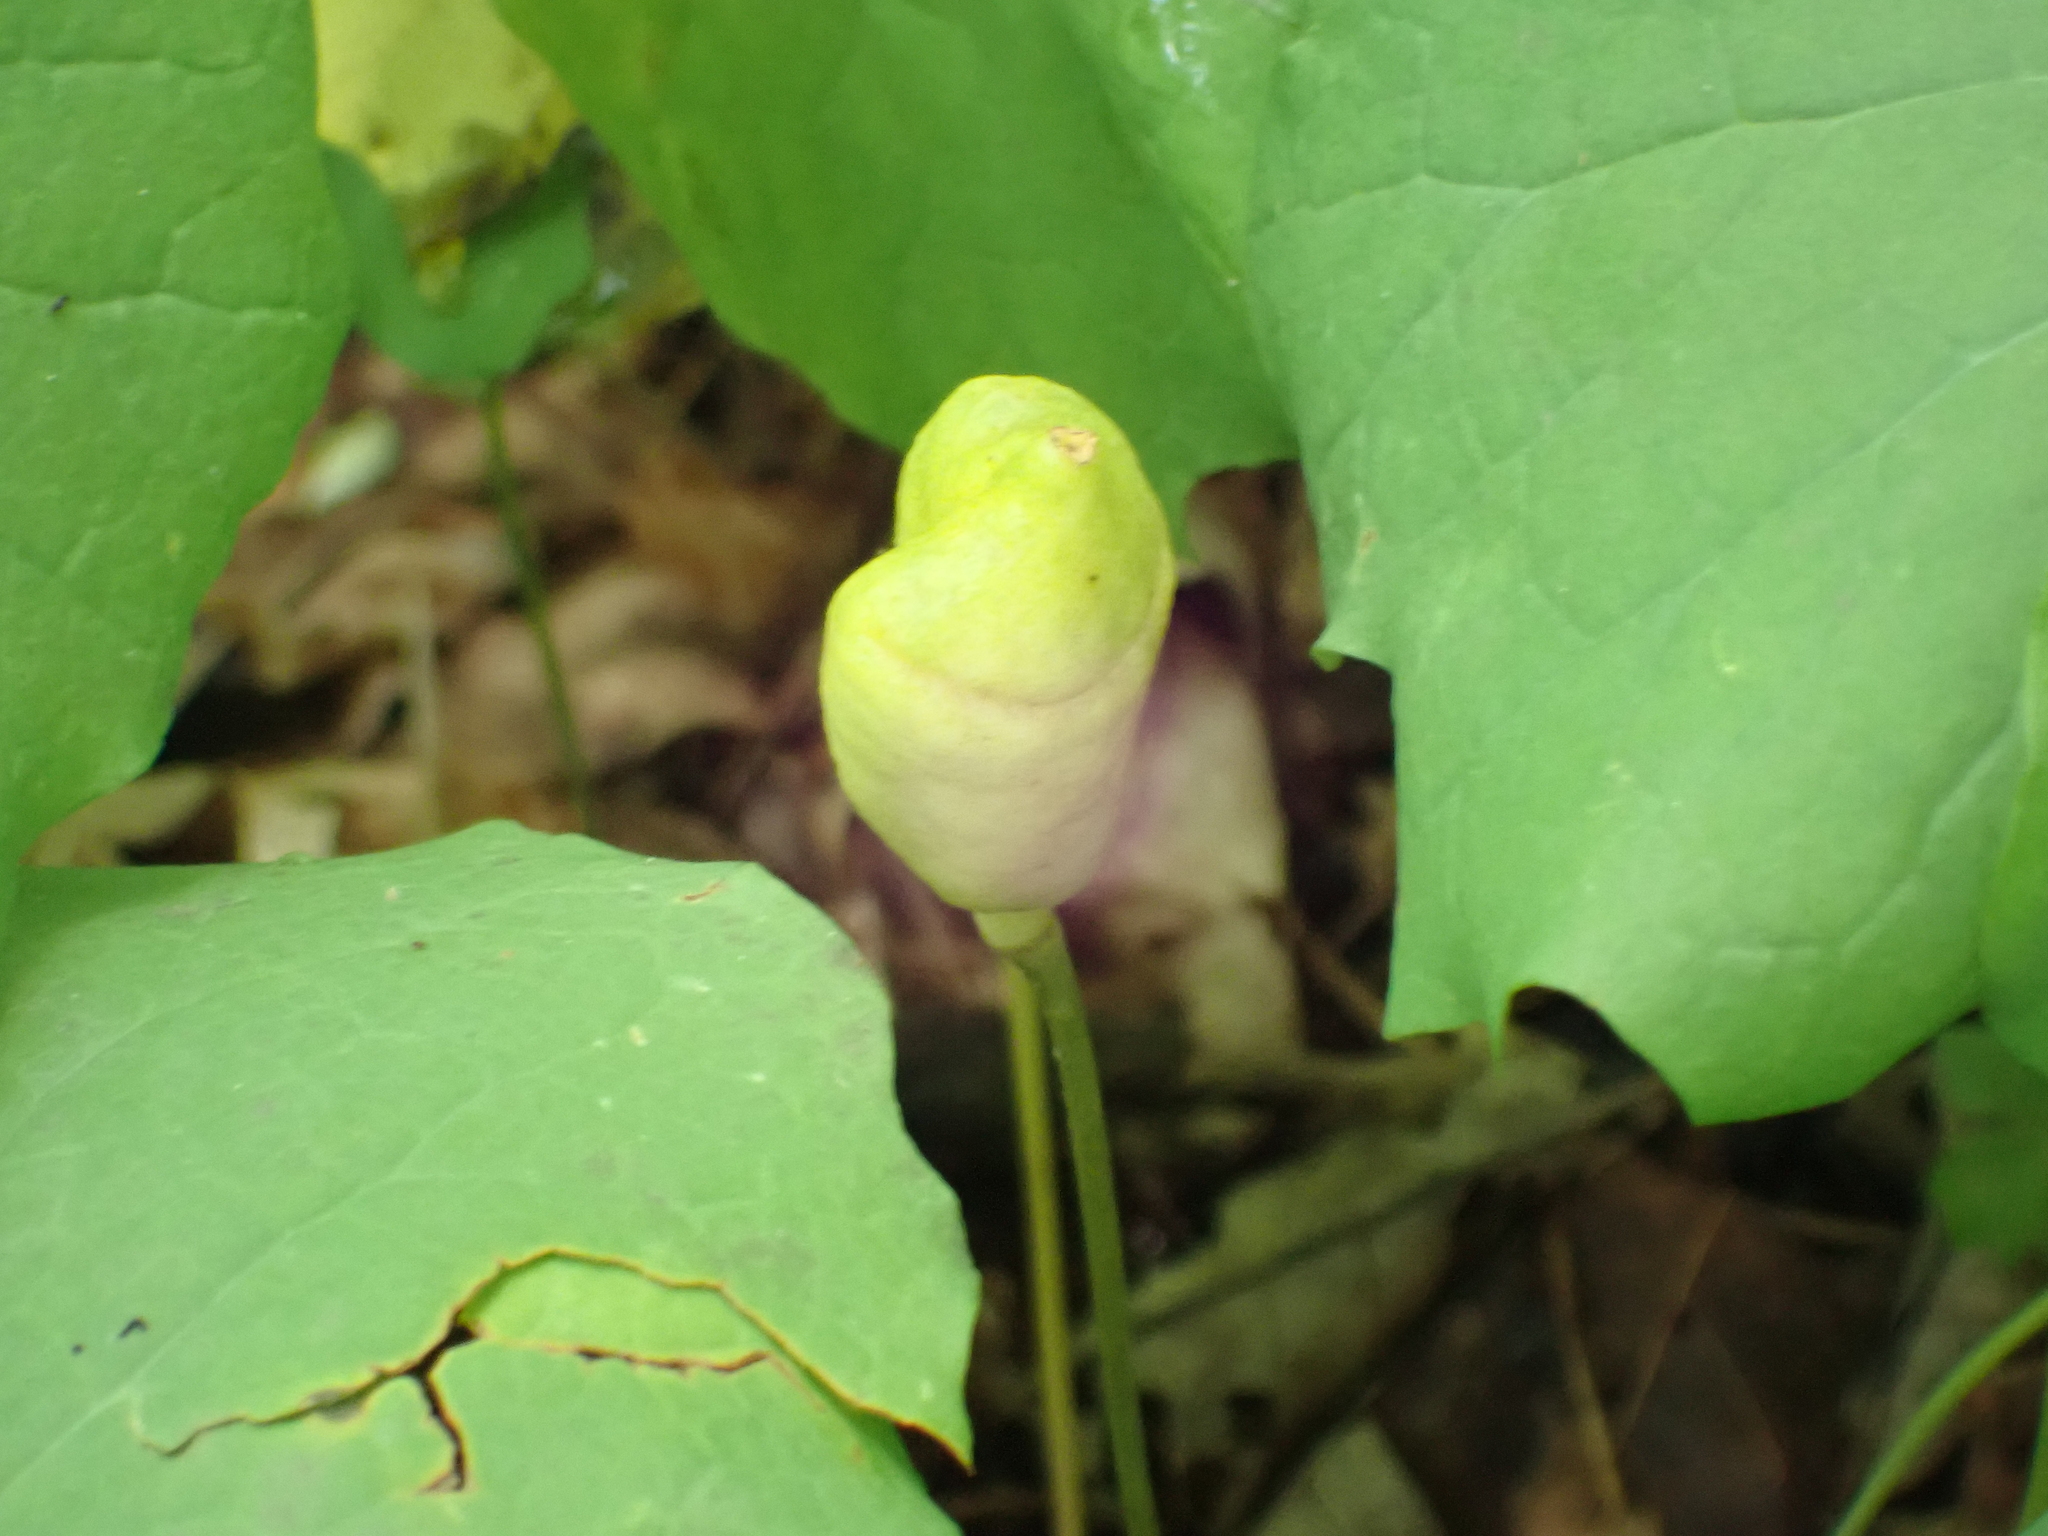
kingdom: Plantae
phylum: Tracheophyta
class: Magnoliopsida
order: Ranunculales
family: Berberidaceae
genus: Jeffersonia
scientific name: Jeffersonia diphylla
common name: Rheumatism-root
